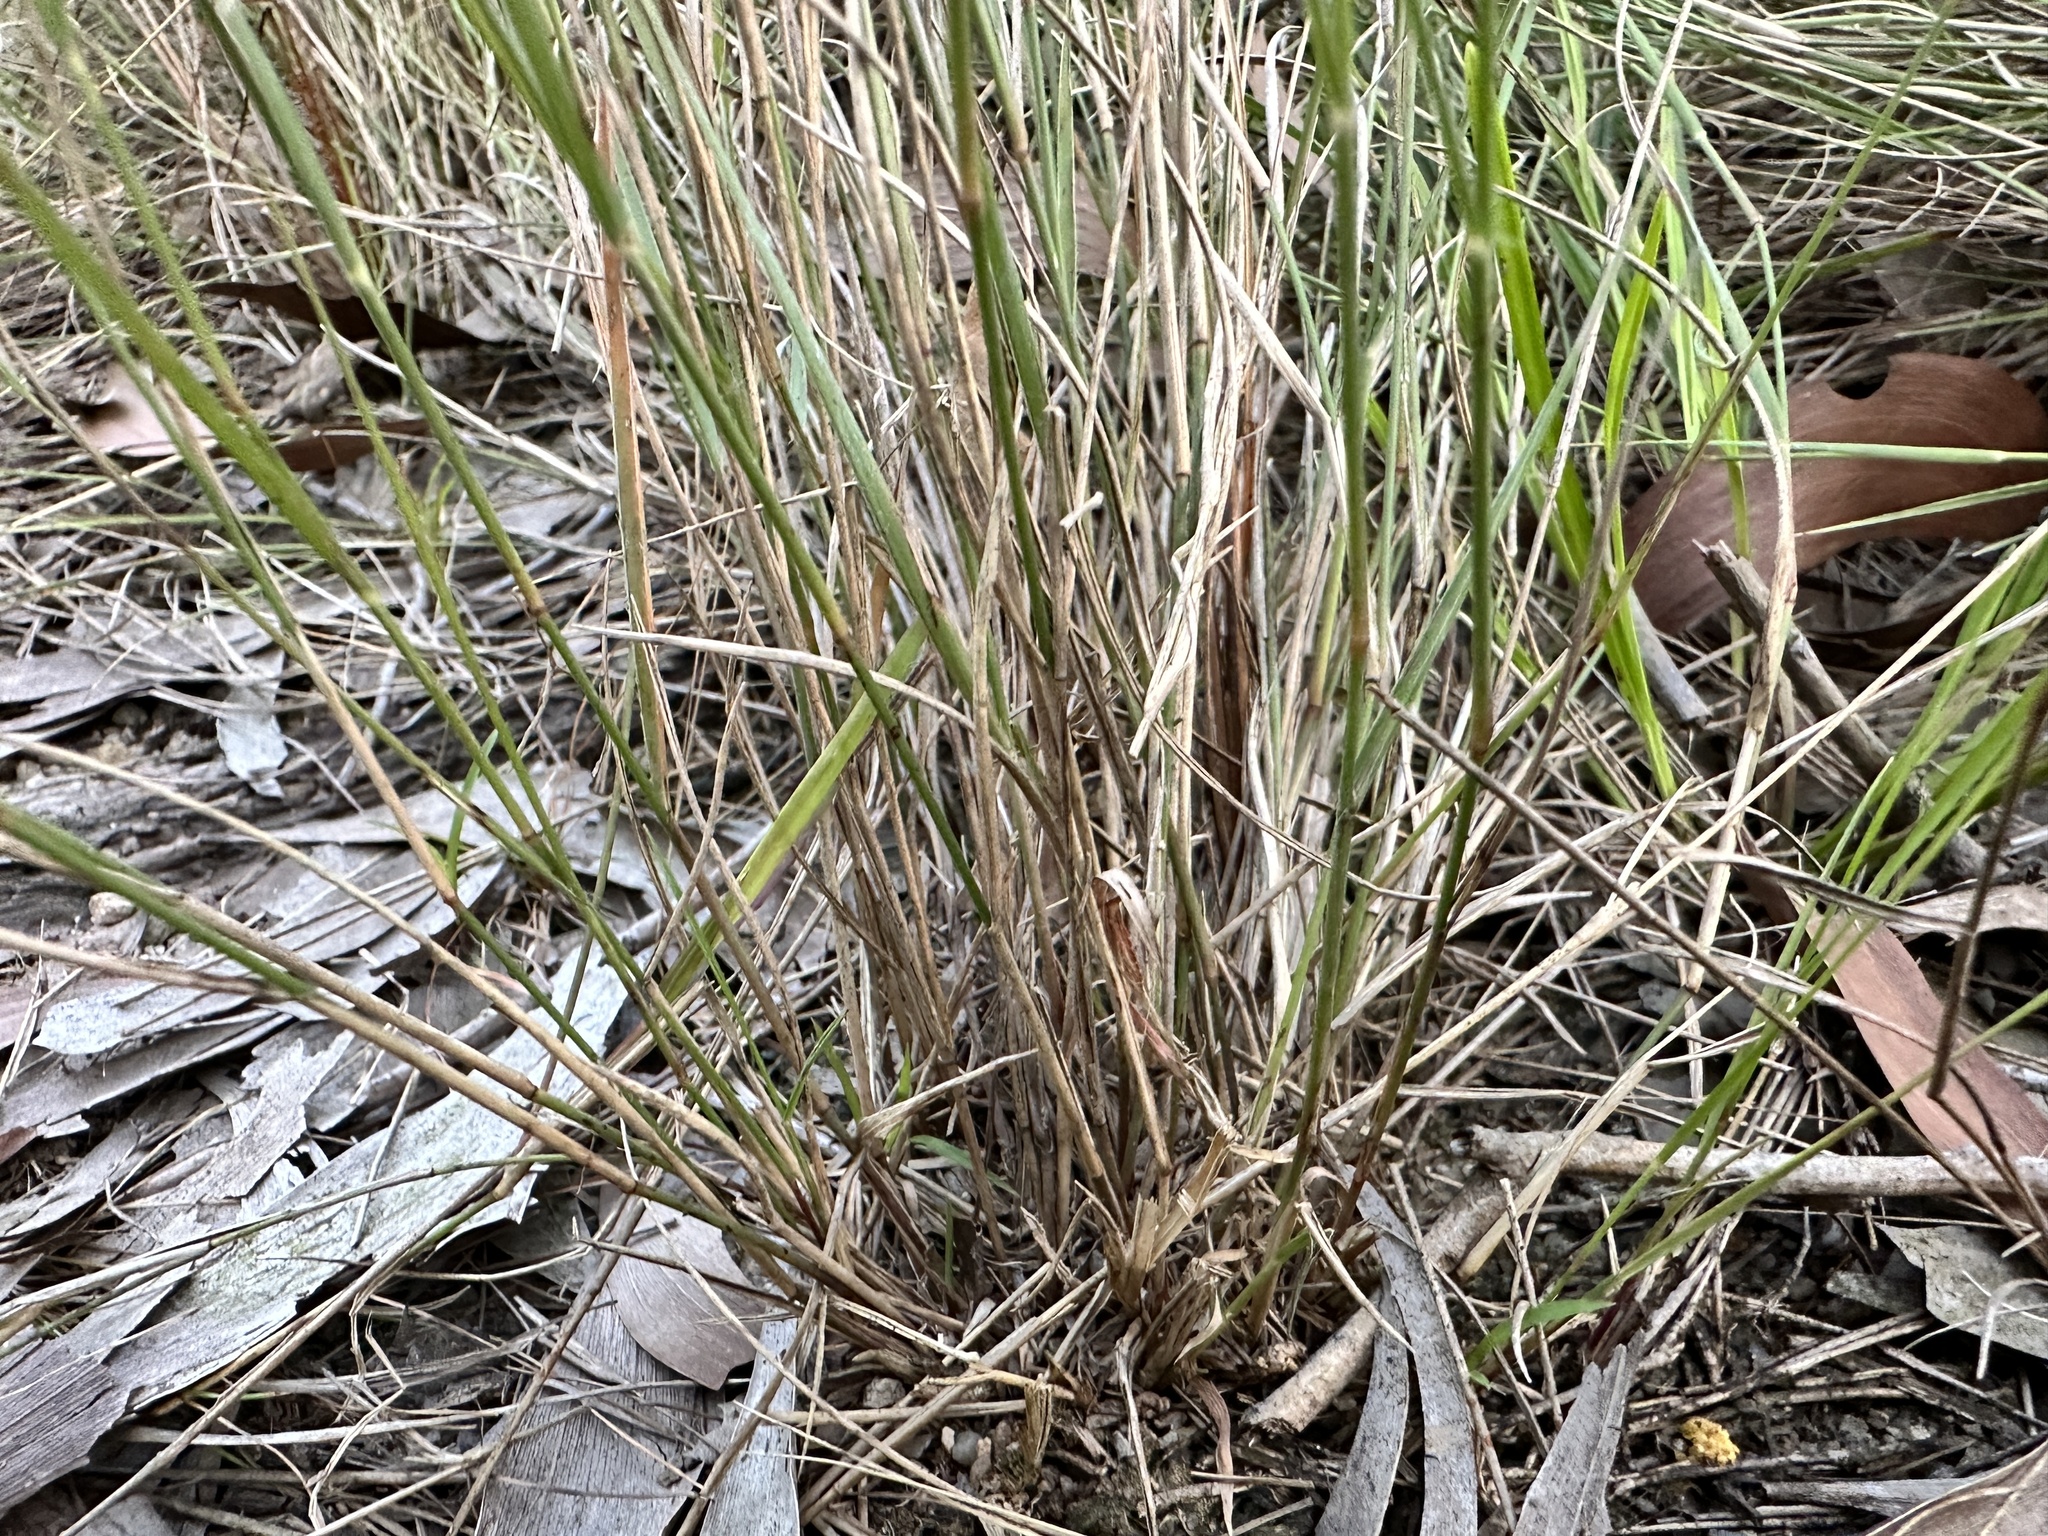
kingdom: Plantae
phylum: Tracheophyta
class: Liliopsida
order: Poales
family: Poaceae
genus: Eriachne
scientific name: Eriachne pallescens
